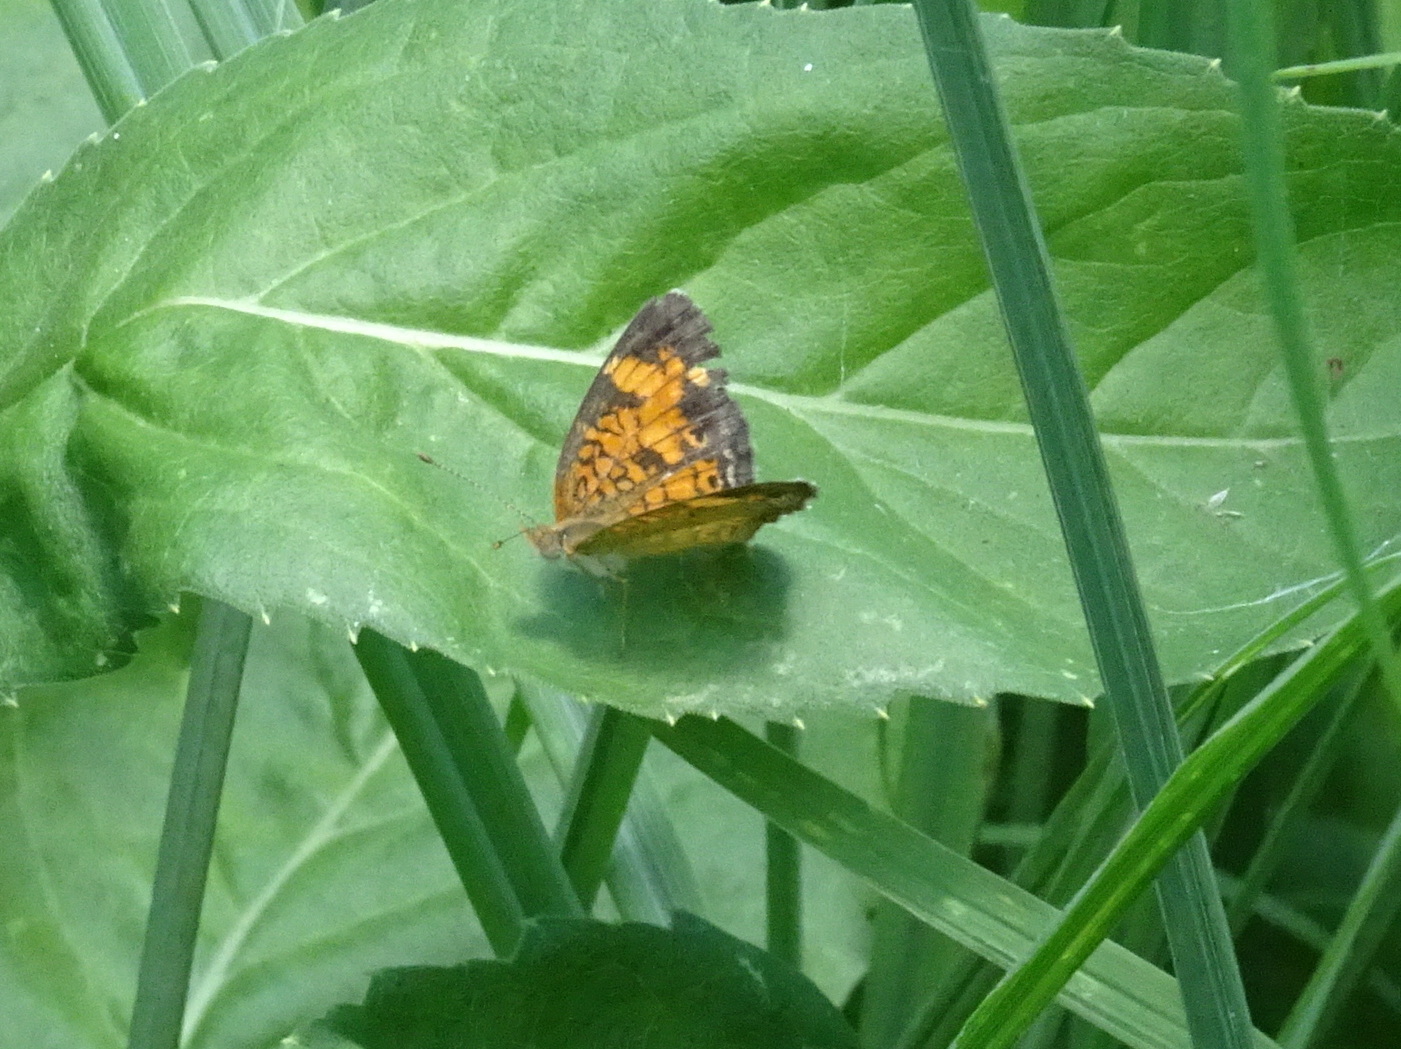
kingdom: Animalia
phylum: Arthropoda
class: Insecta
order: Lepidoptera
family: Nymphalidae
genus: Phyciodes
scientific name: Phyciodes tharos
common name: Pearl crescent
